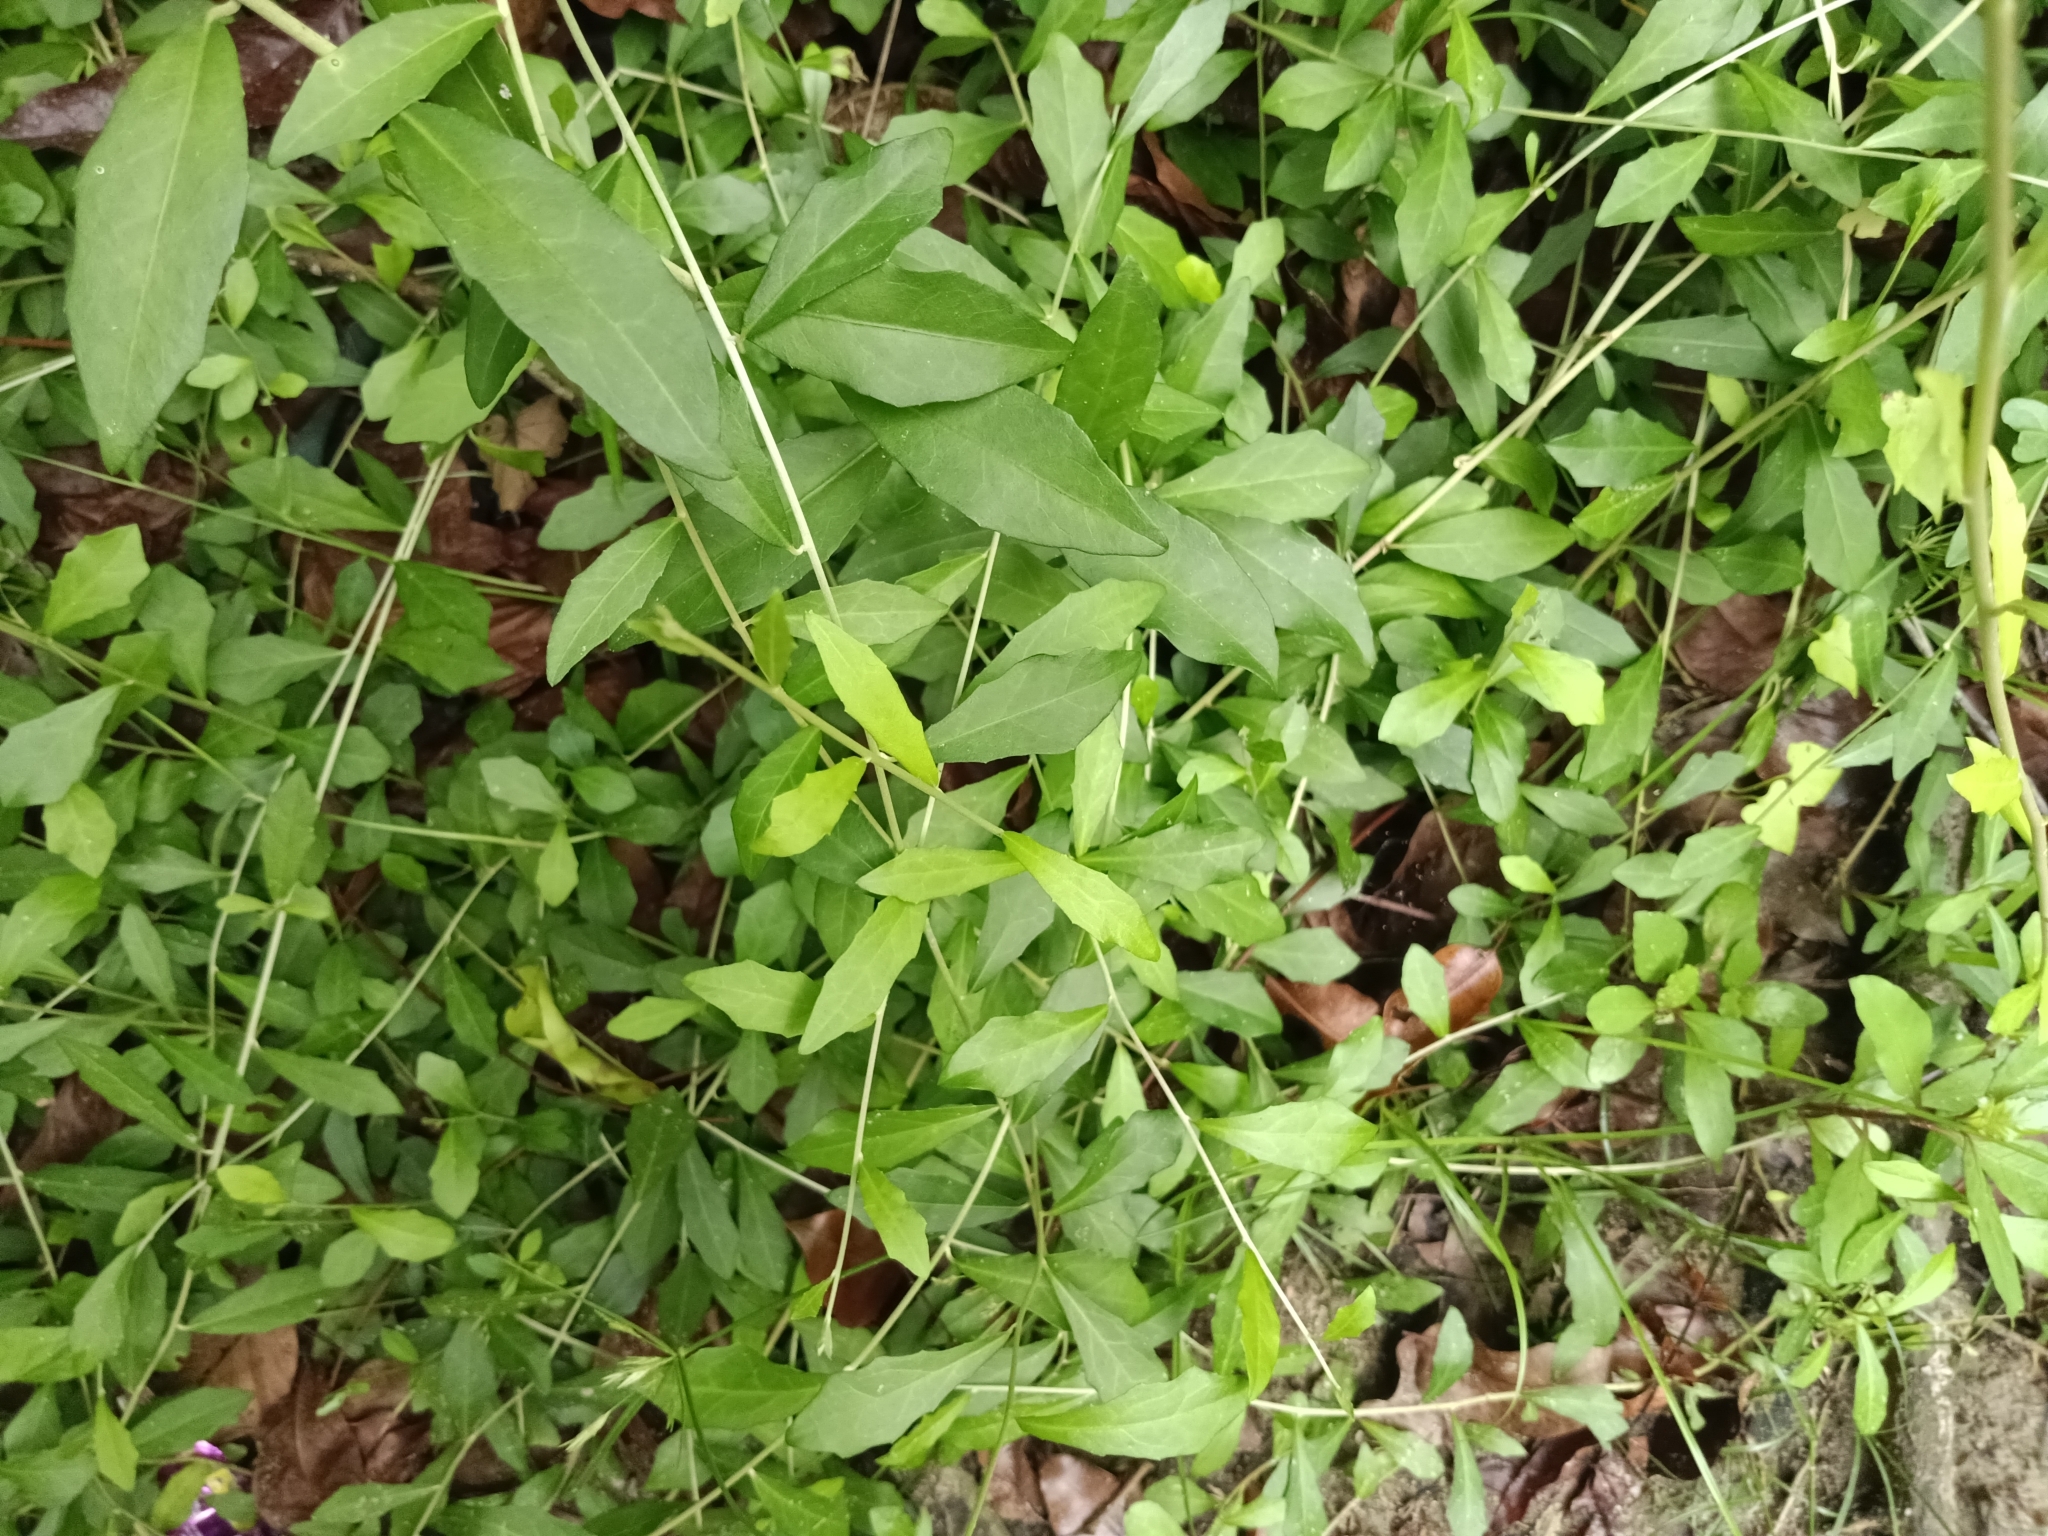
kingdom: Plantae
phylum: Tracheophyta
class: Magnoliopsida
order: Asterales
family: Asteraceae
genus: Tarlmounia
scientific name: Tarlmounia elliptica
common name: Kheua sa lot
